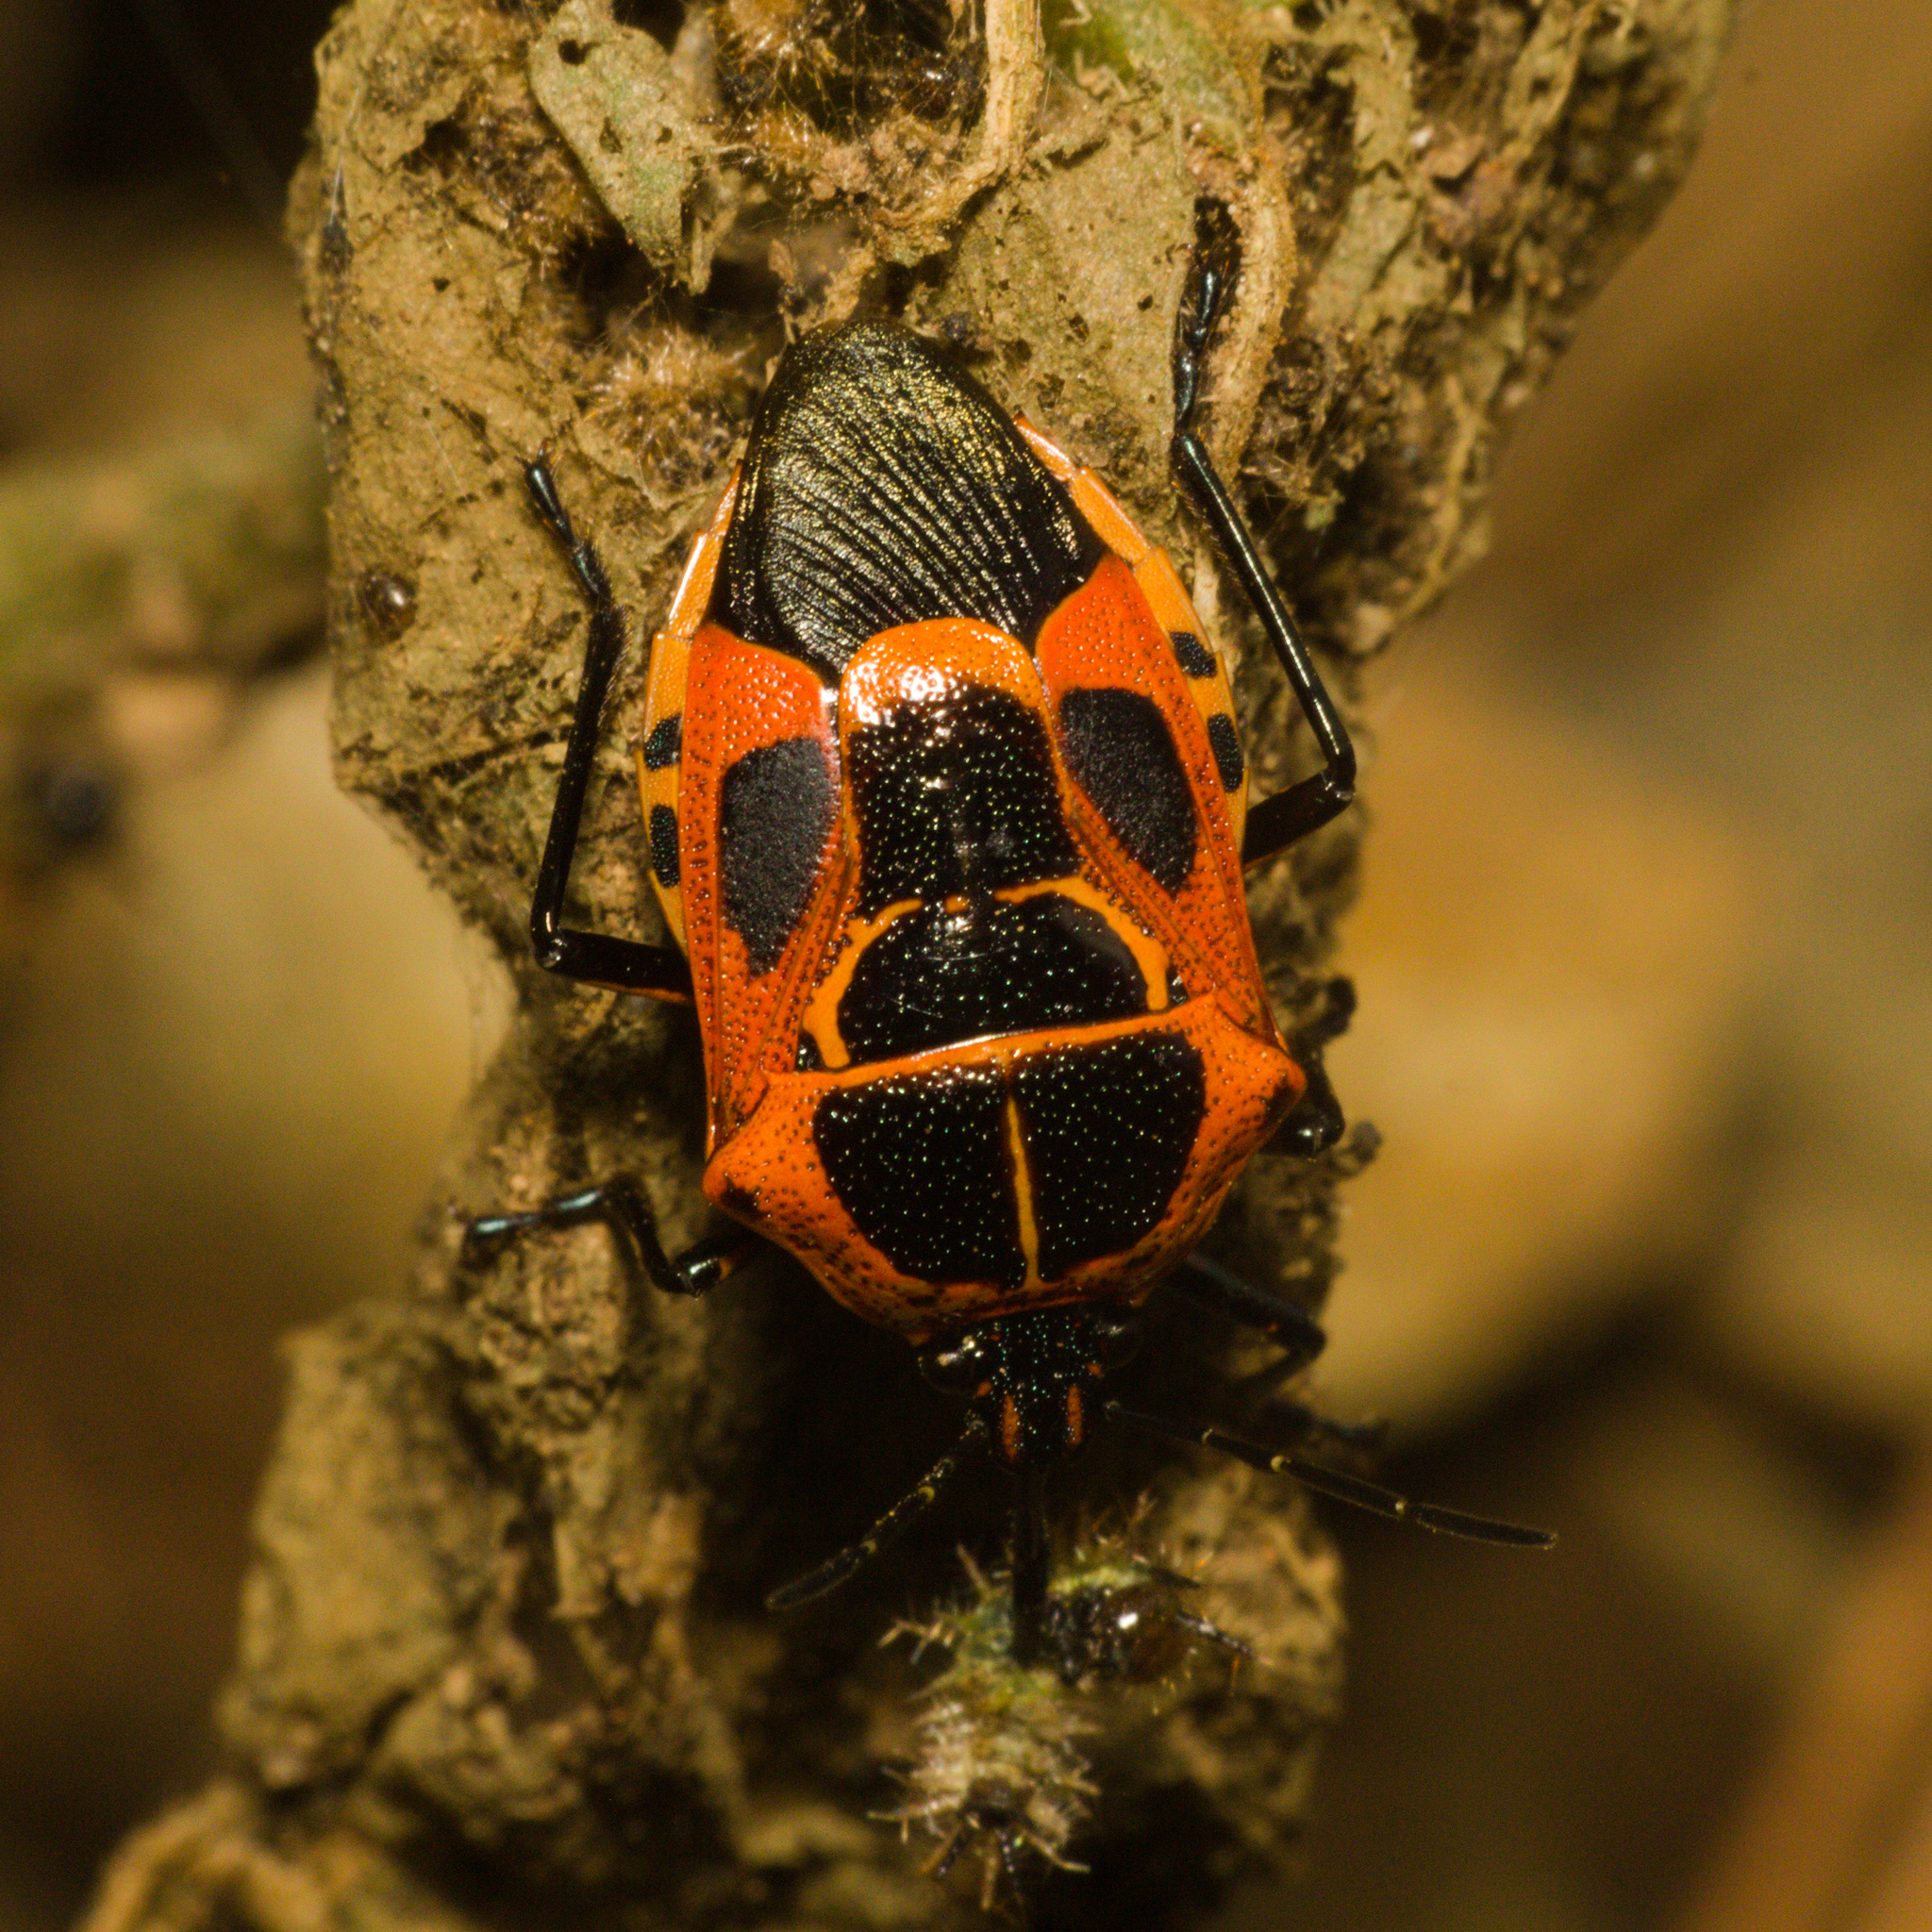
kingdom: Animalia
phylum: Arthropoda
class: Insecta
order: Hemiptera
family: Pentatomidae
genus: Oplomus
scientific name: Oplomus catena
